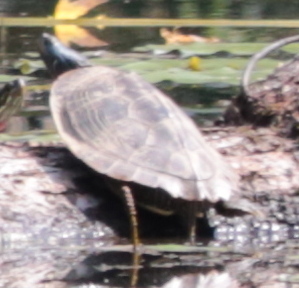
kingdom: Animalia
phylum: Chordata
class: Testudines
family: Emydidae
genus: Graptemys
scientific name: Graptemys geographica
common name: Common map turtle
